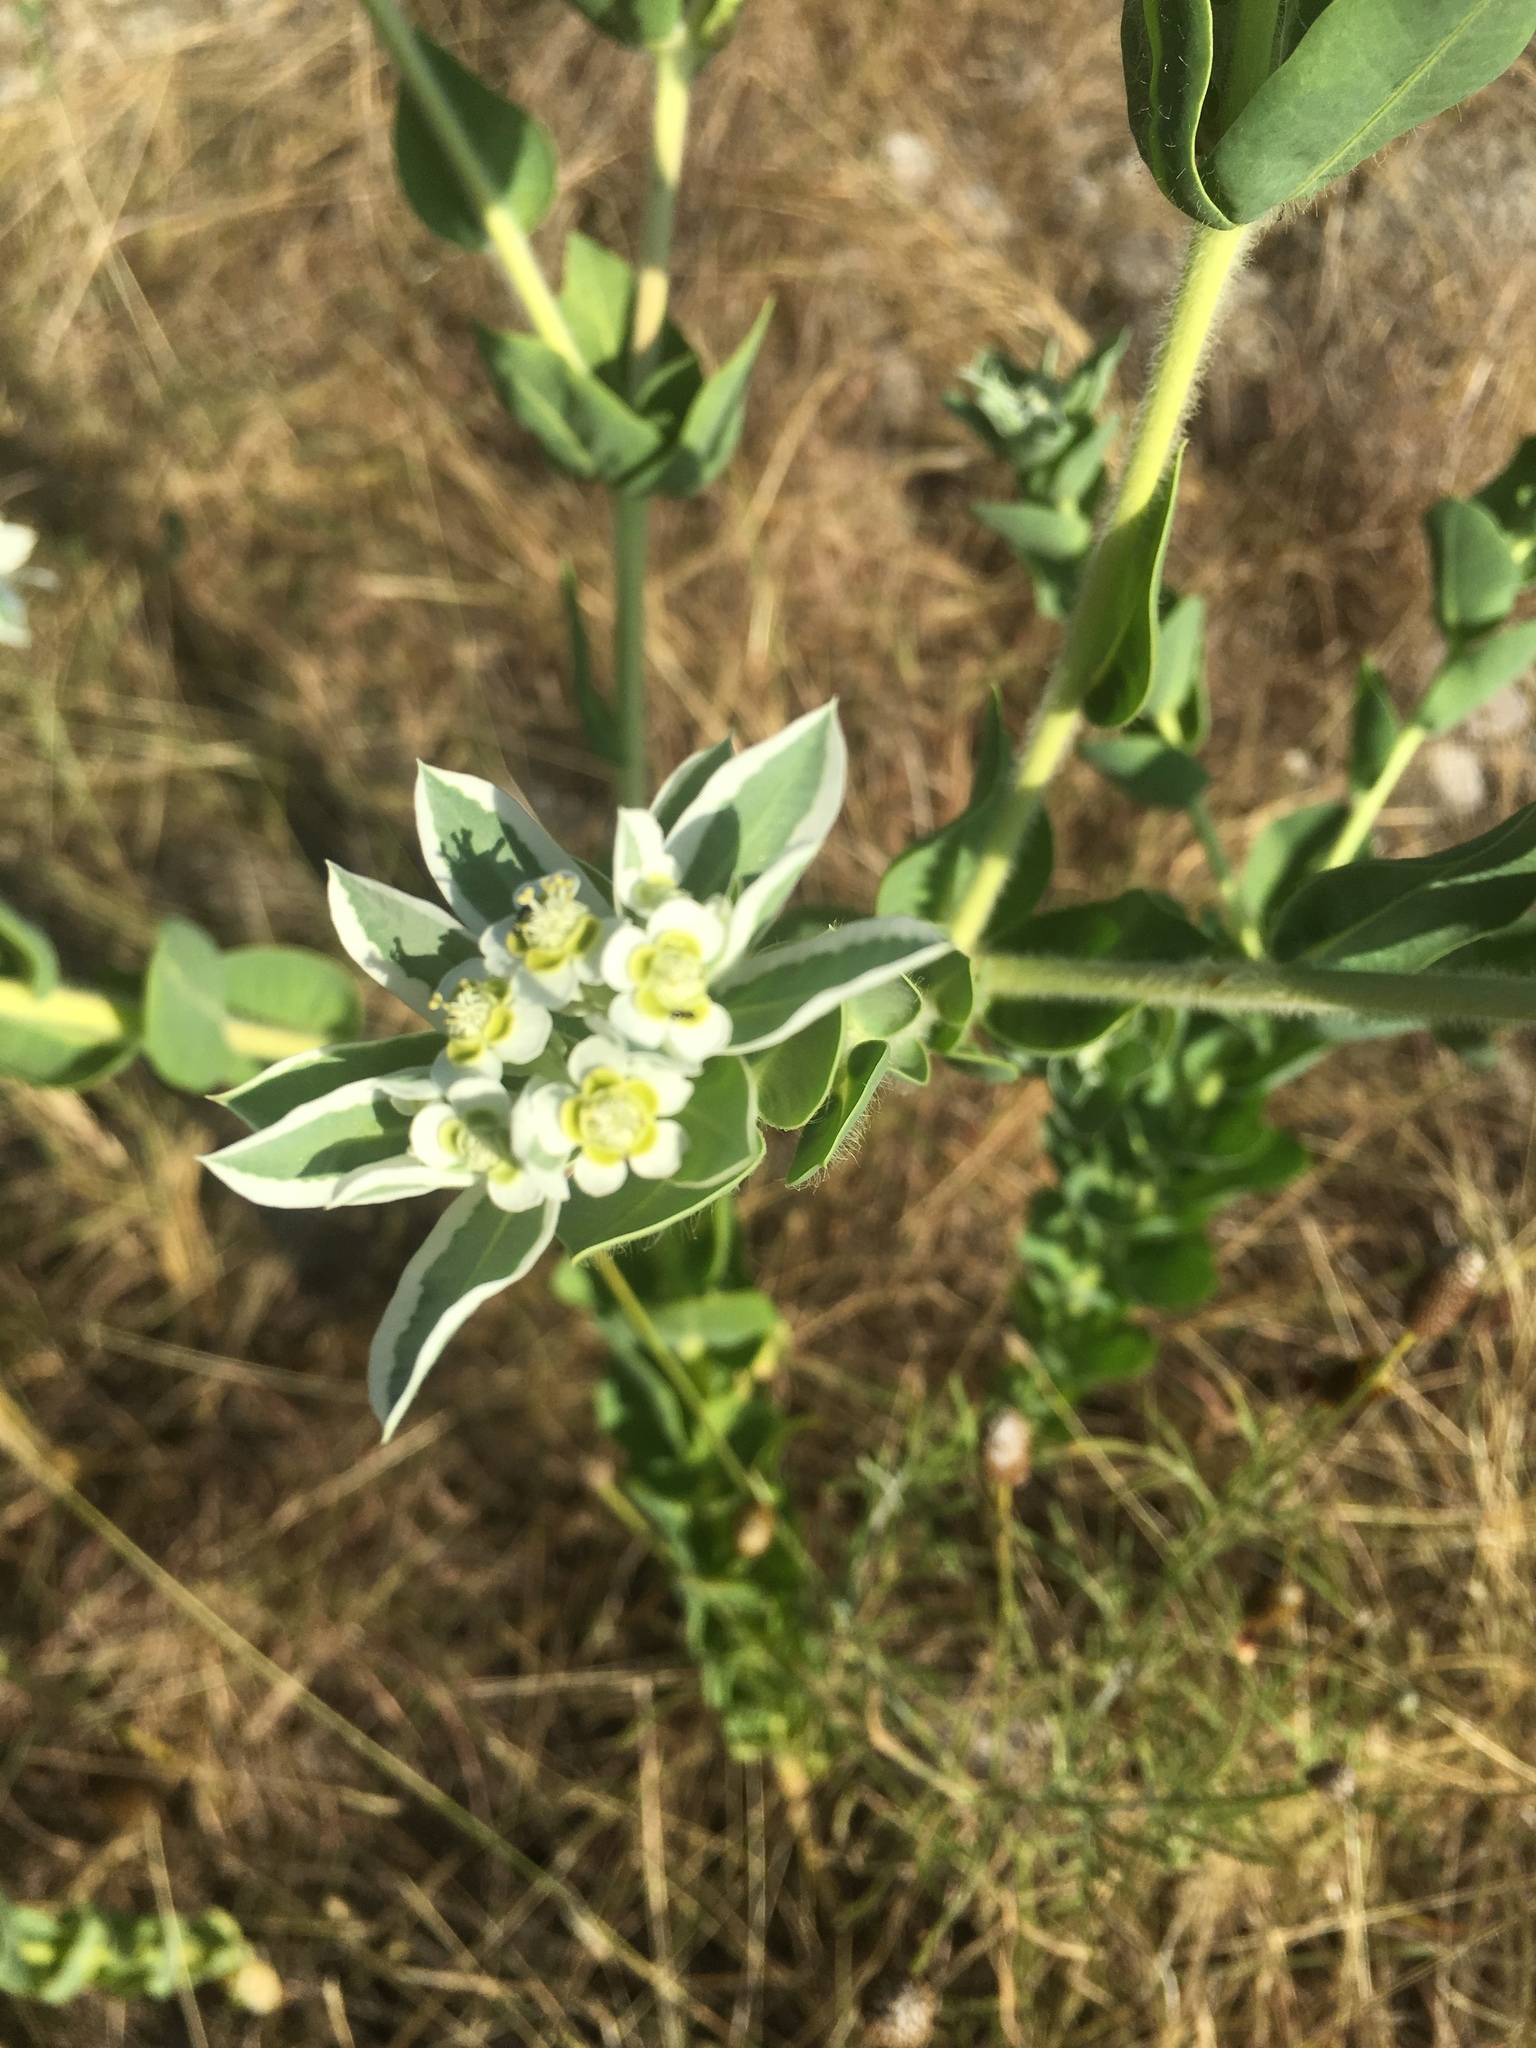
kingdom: Plantae
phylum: Tracheophyta
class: Magnoliopsida
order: Malpighiales
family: Euphorbiaceae
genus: Euphorbia
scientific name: Euphorbia marginata
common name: Ghostweed
